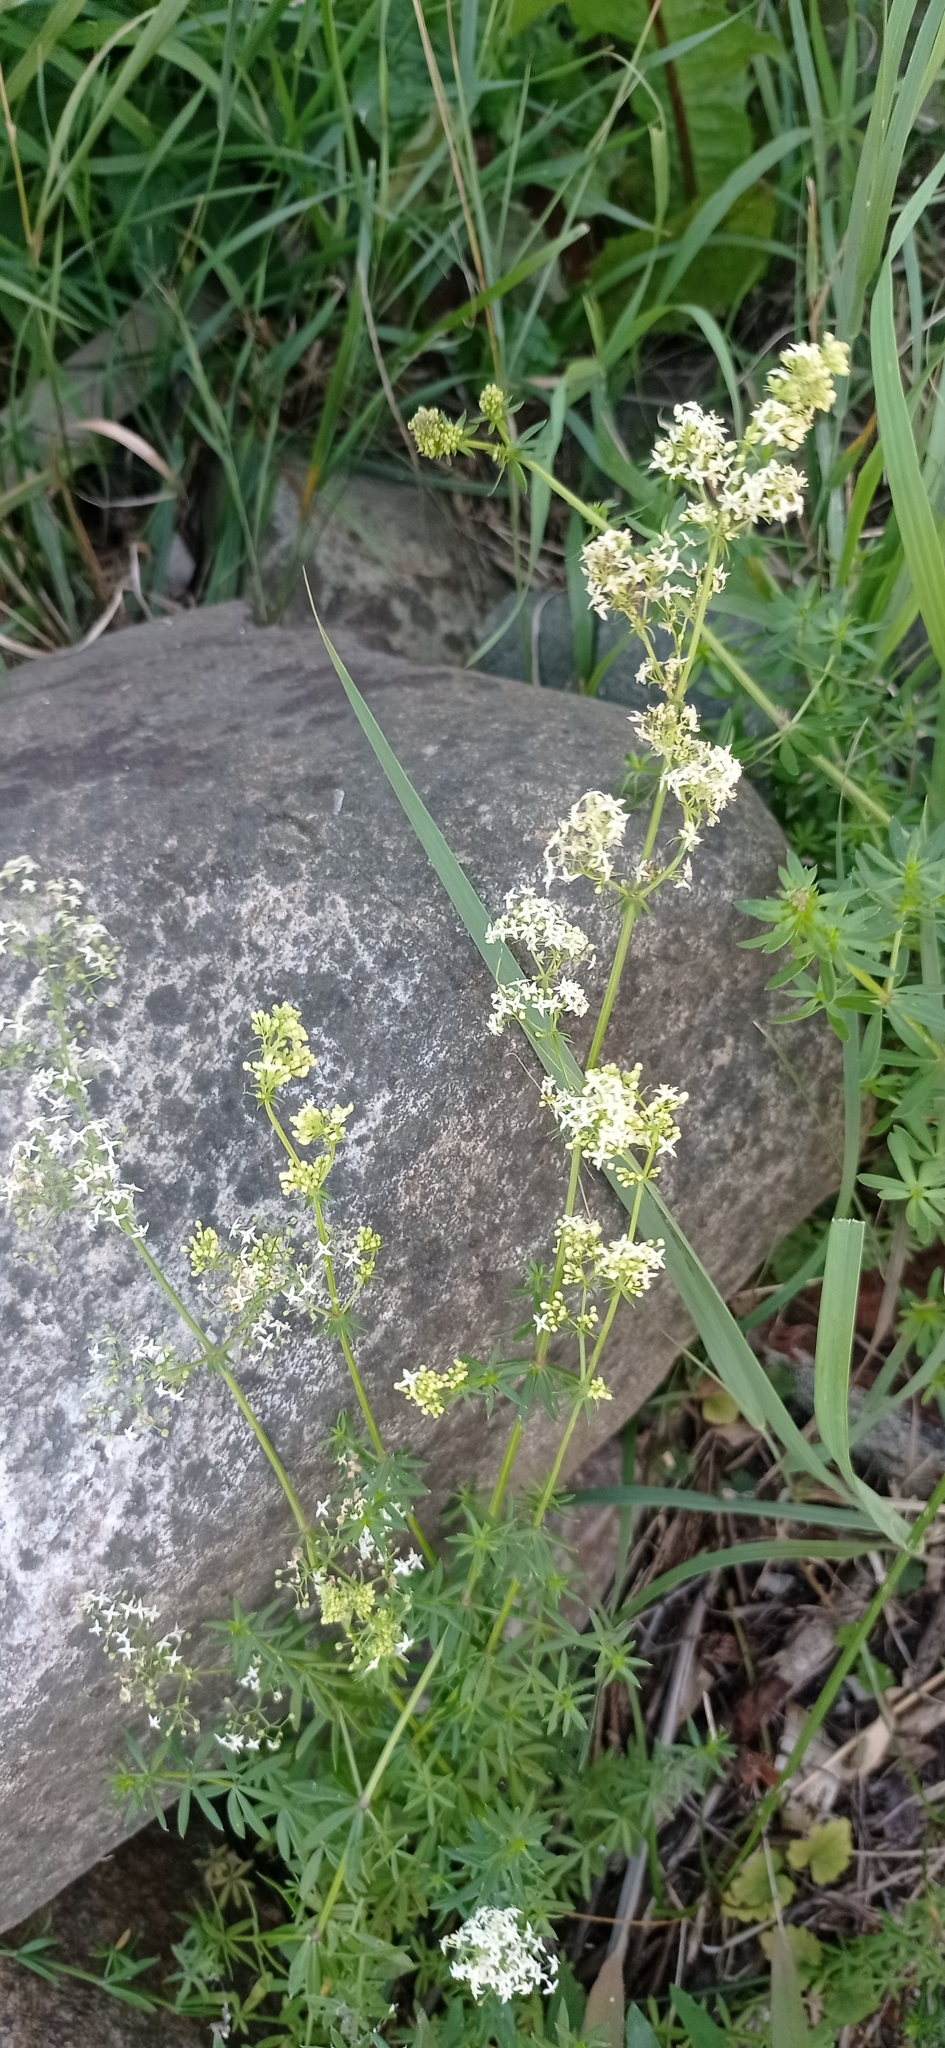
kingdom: Plantae
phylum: Tracheophyta
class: Magnoliopsida
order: Gentianales
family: Rubiaceae
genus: Galium
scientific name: Galium mollugo
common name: Hedge bedstraw
